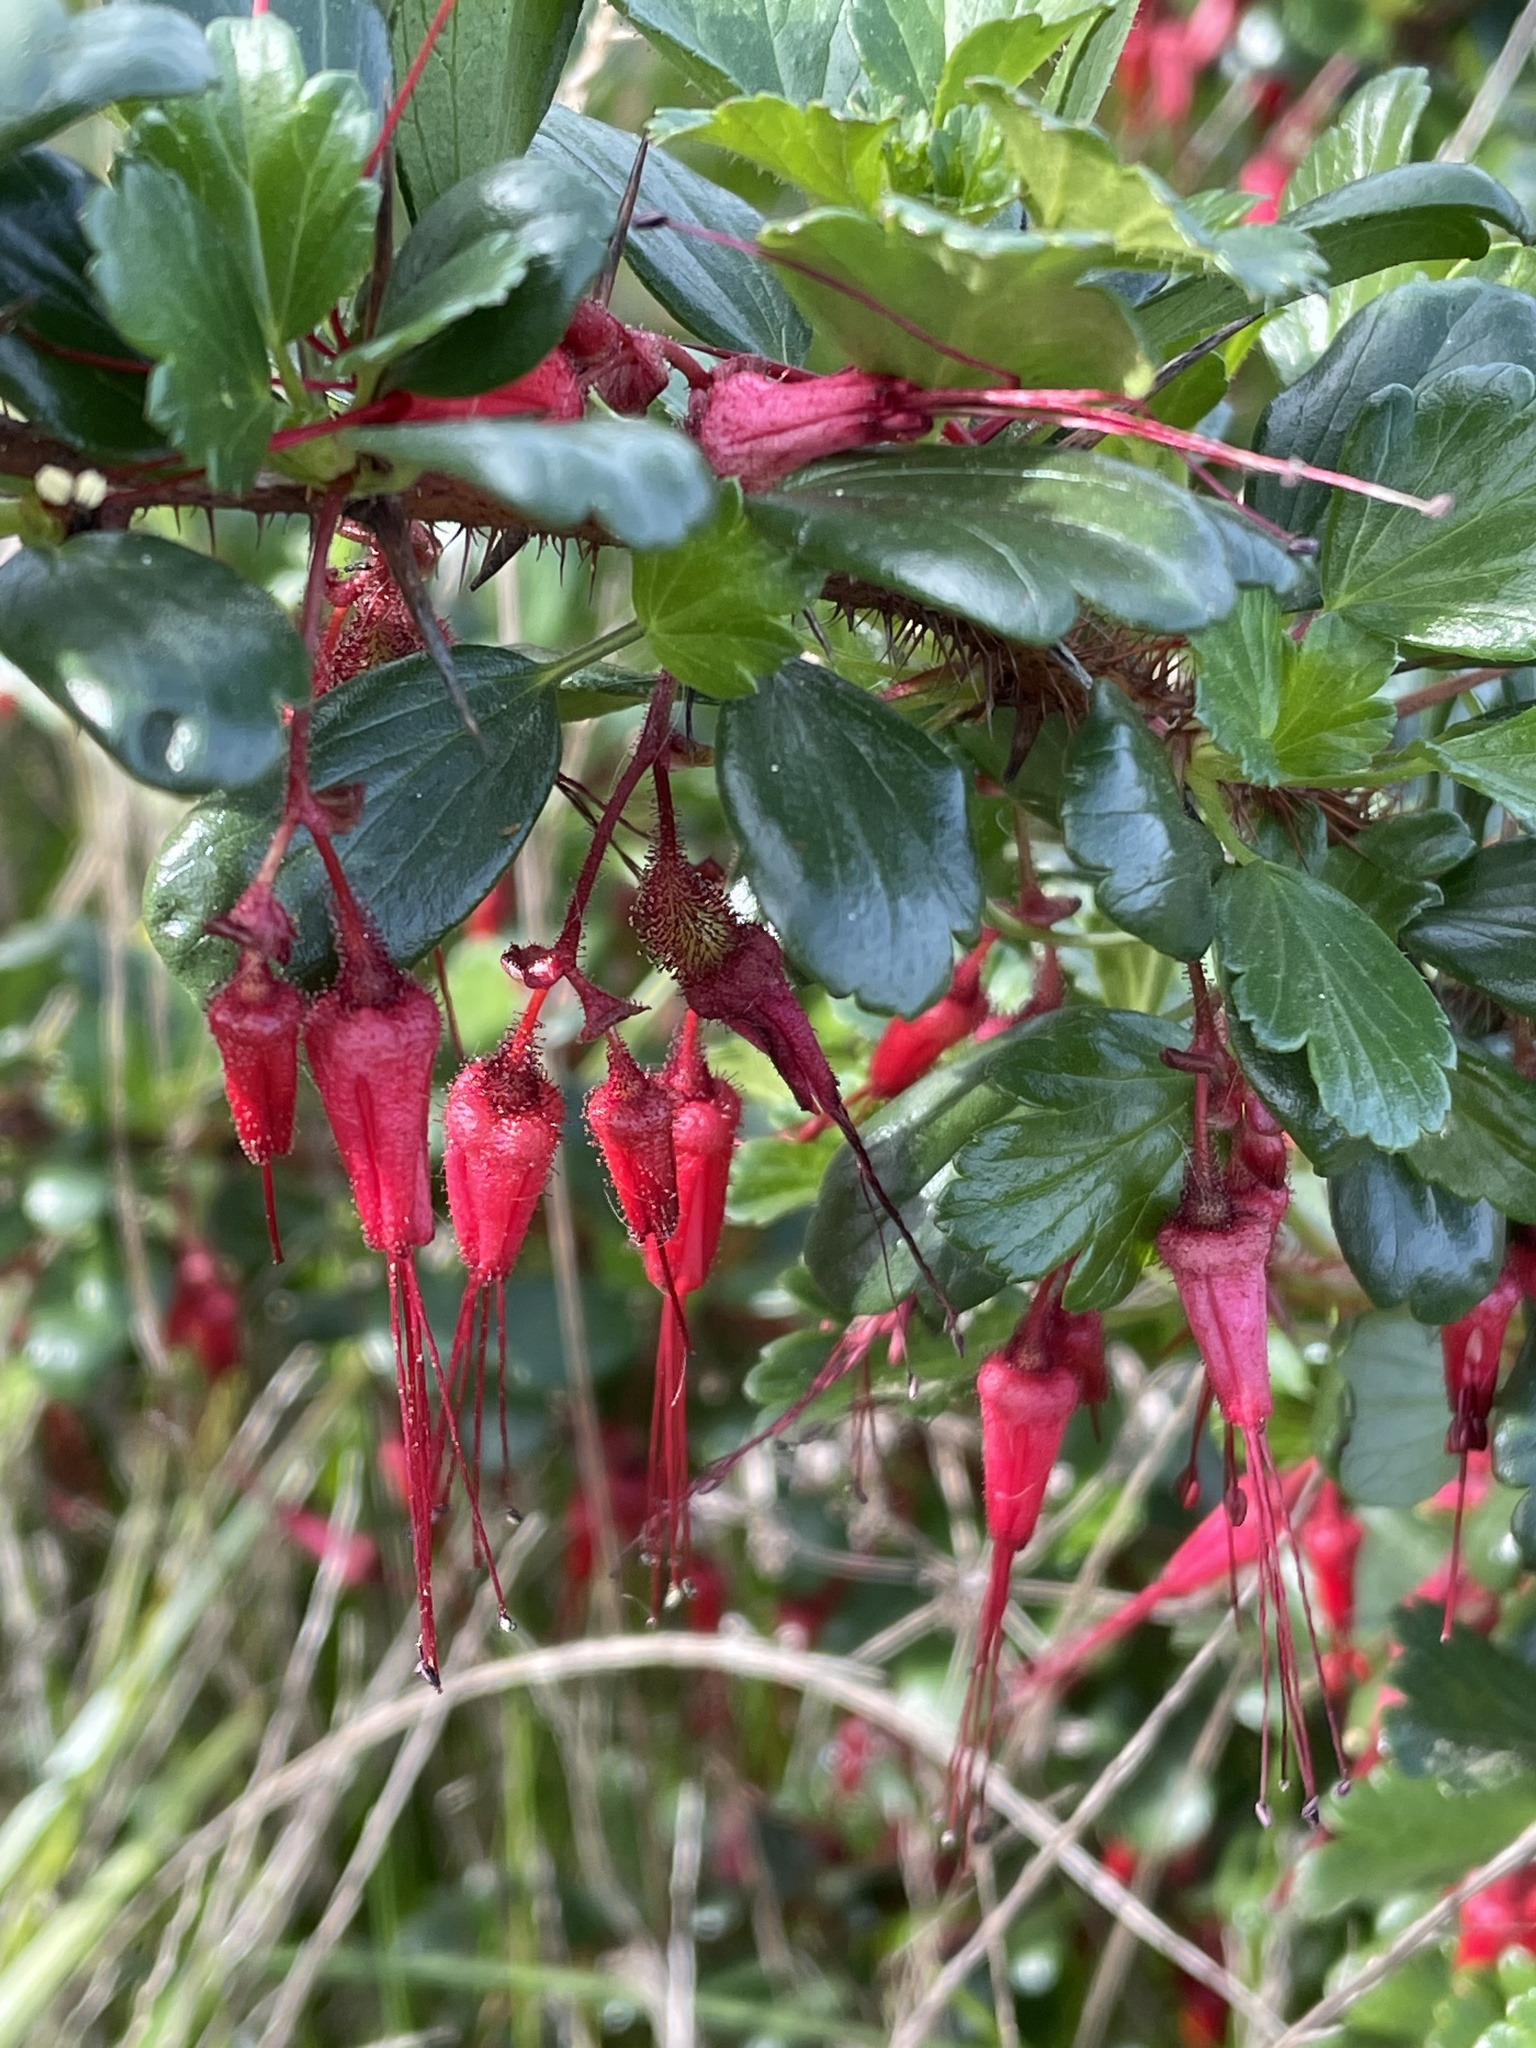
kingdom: Plantae
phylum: Tracheophyta
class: Magnoliopsida
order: Saxifragales
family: Grossulariaceae
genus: Ribes
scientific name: Ribes speciosum
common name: Fuchsia-flower gooseberry
